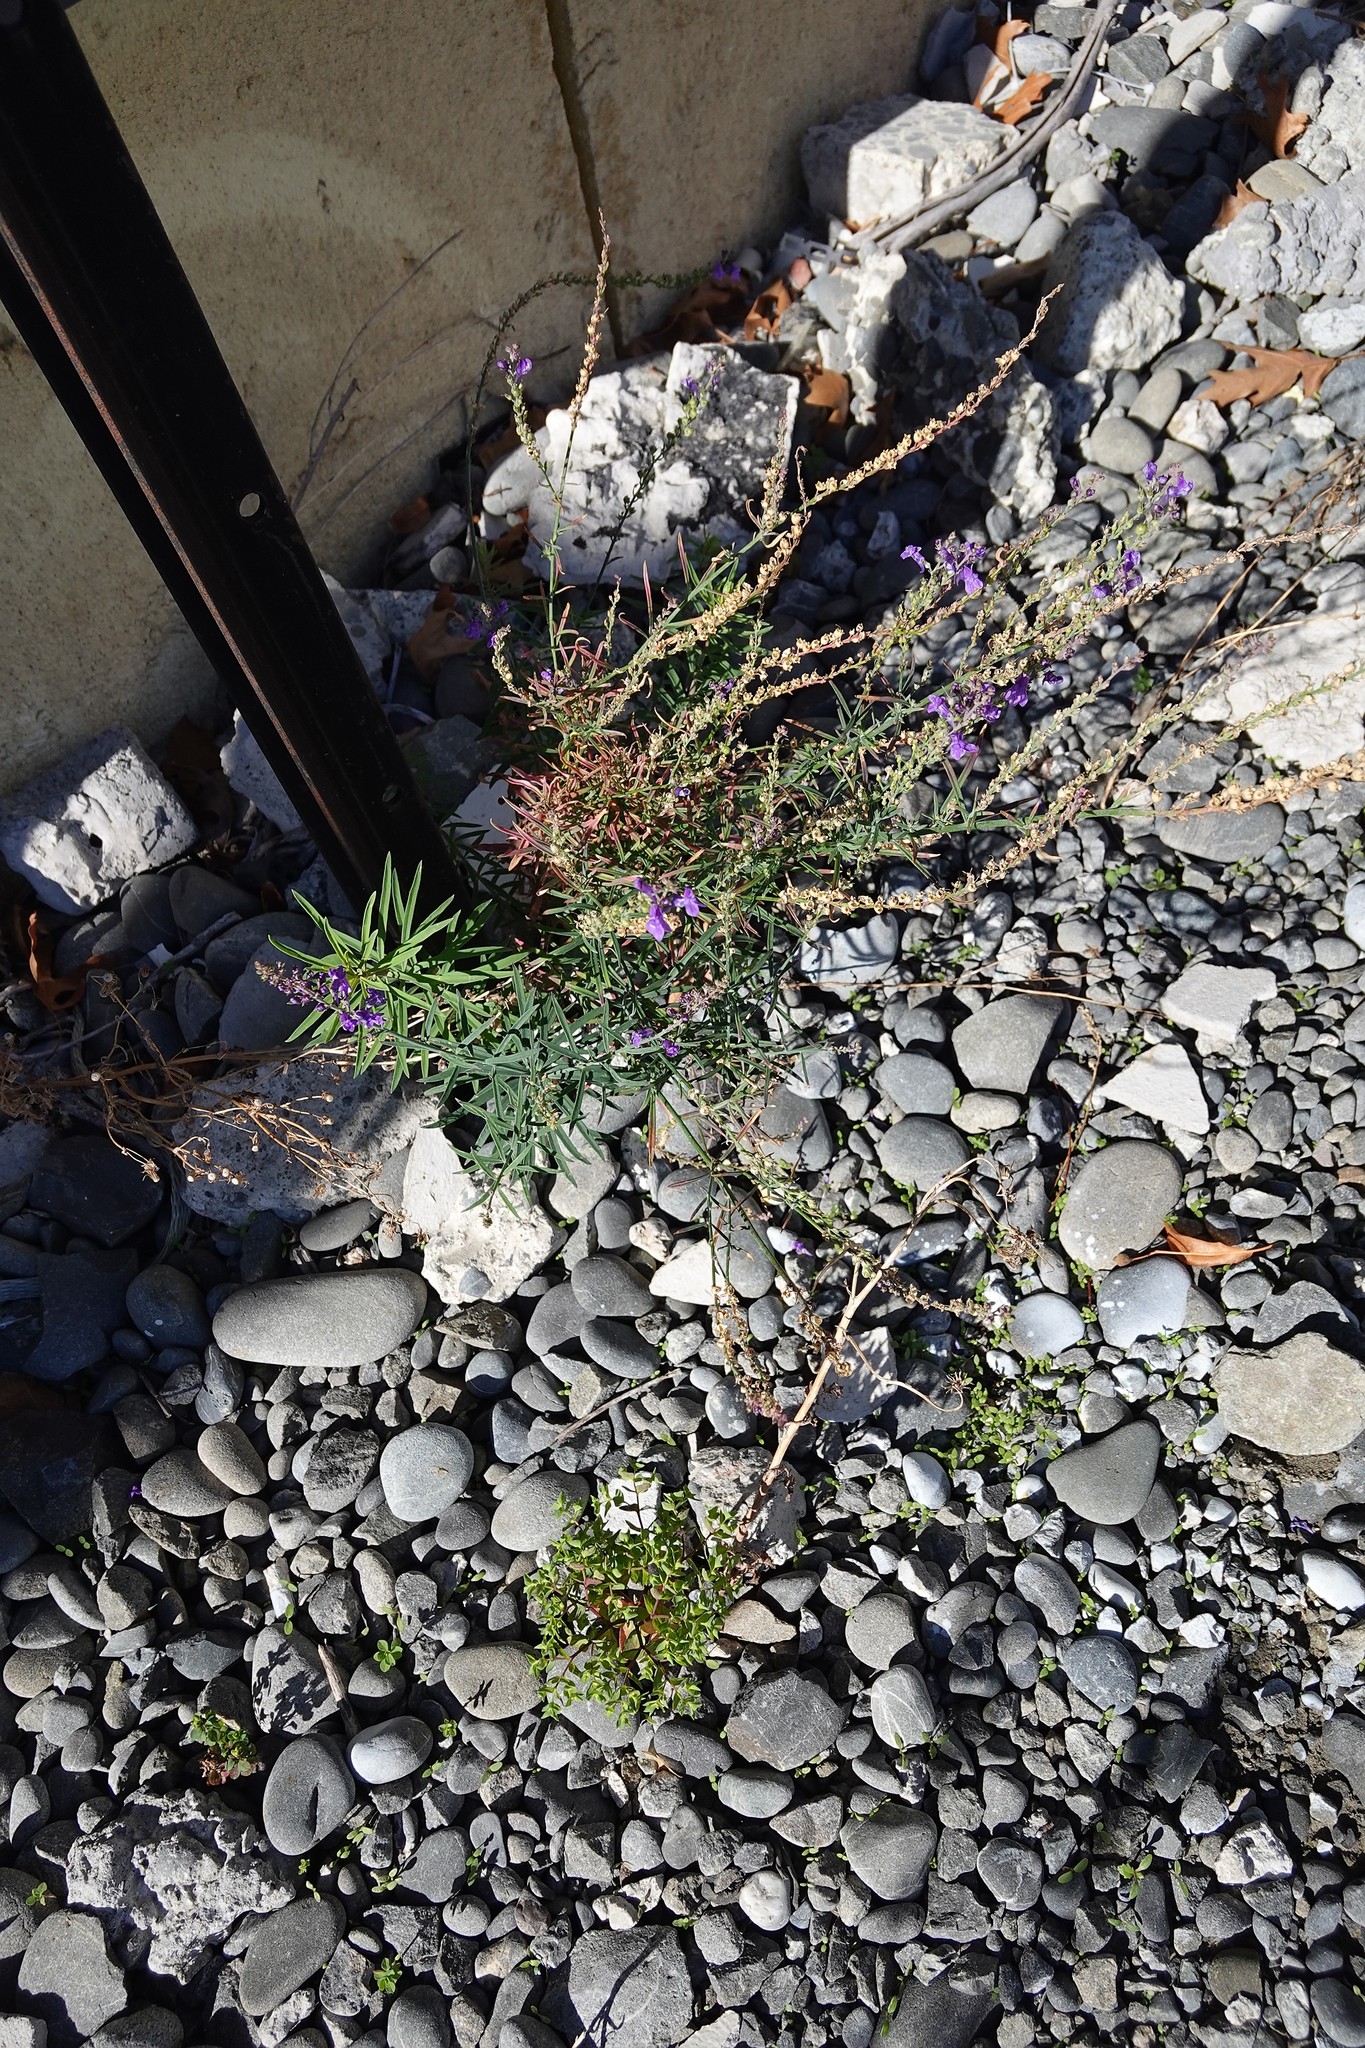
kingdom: Plantae
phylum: Tracheophyta
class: Magnoliopsida
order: Lamiales
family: Plantaginaceae
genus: Linaria
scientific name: Linaria purpurea
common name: Purple toadflax
